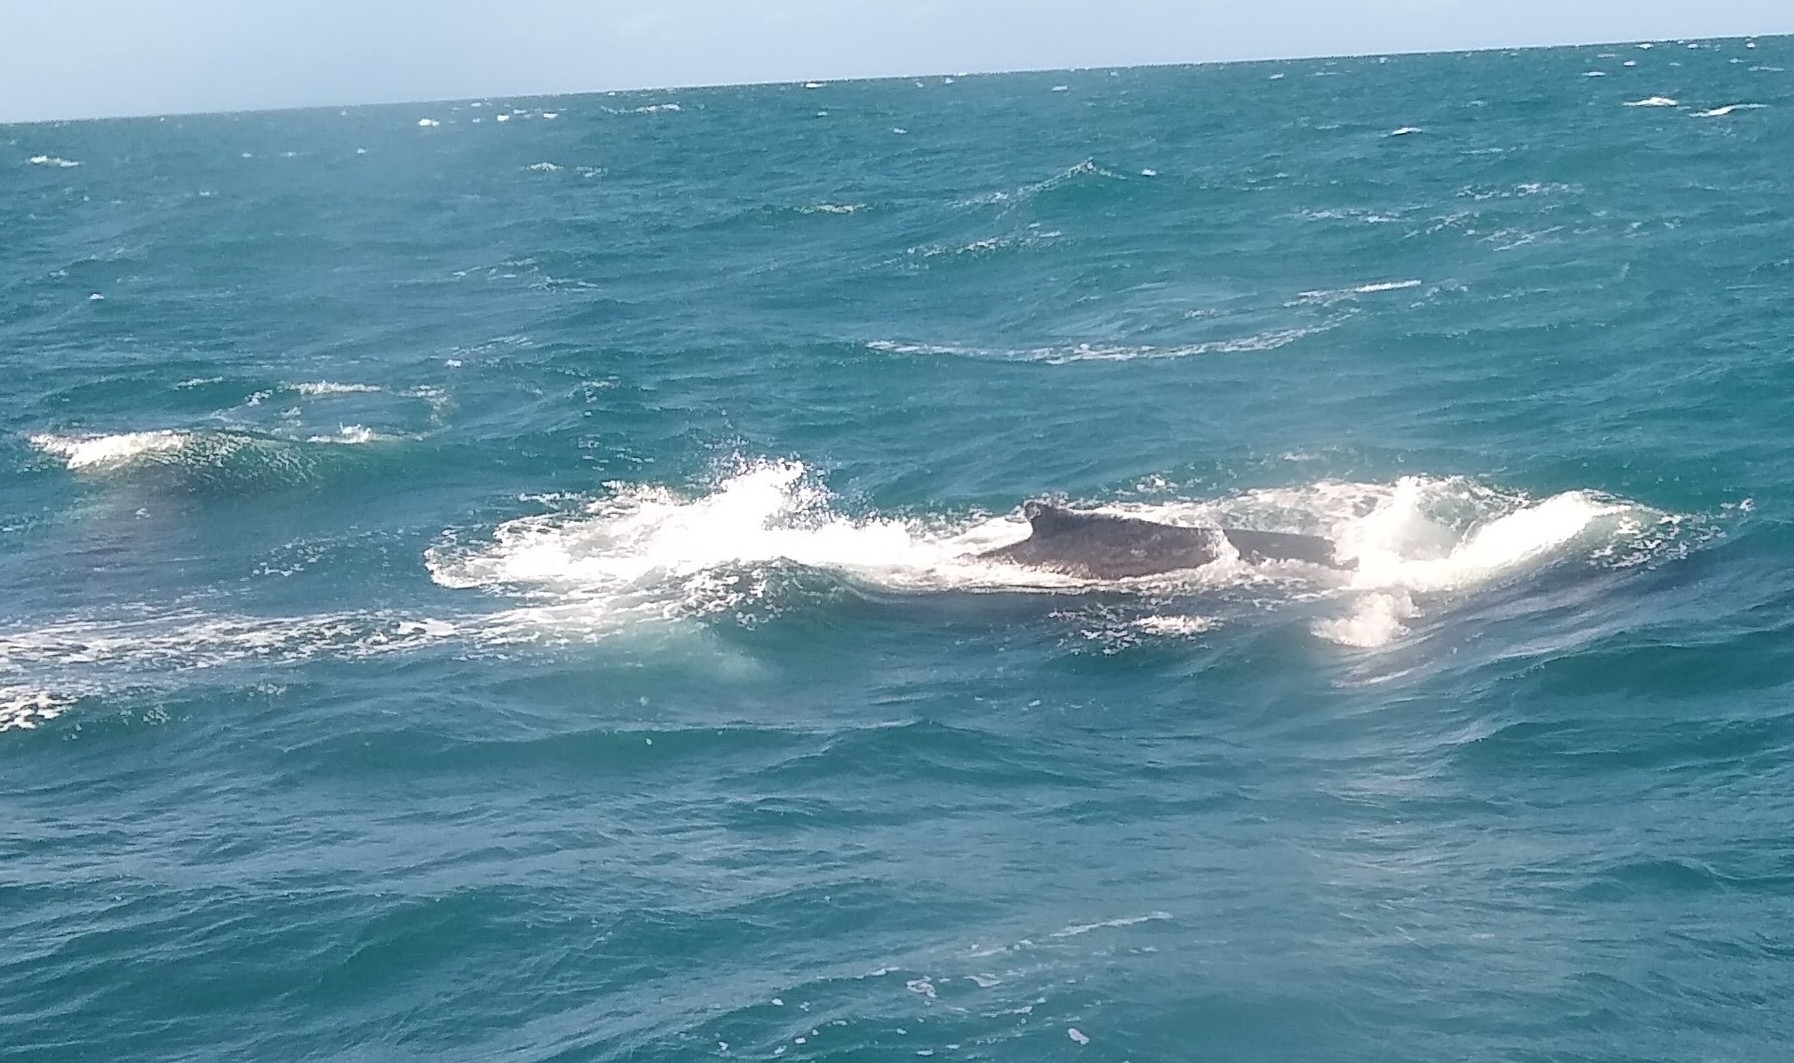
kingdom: Animalia
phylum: Chordata
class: Mammalia
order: Cetacea
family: Balaenopteridae
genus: Megaptera
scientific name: Megaptera novaeangliae
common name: Humpback whale
